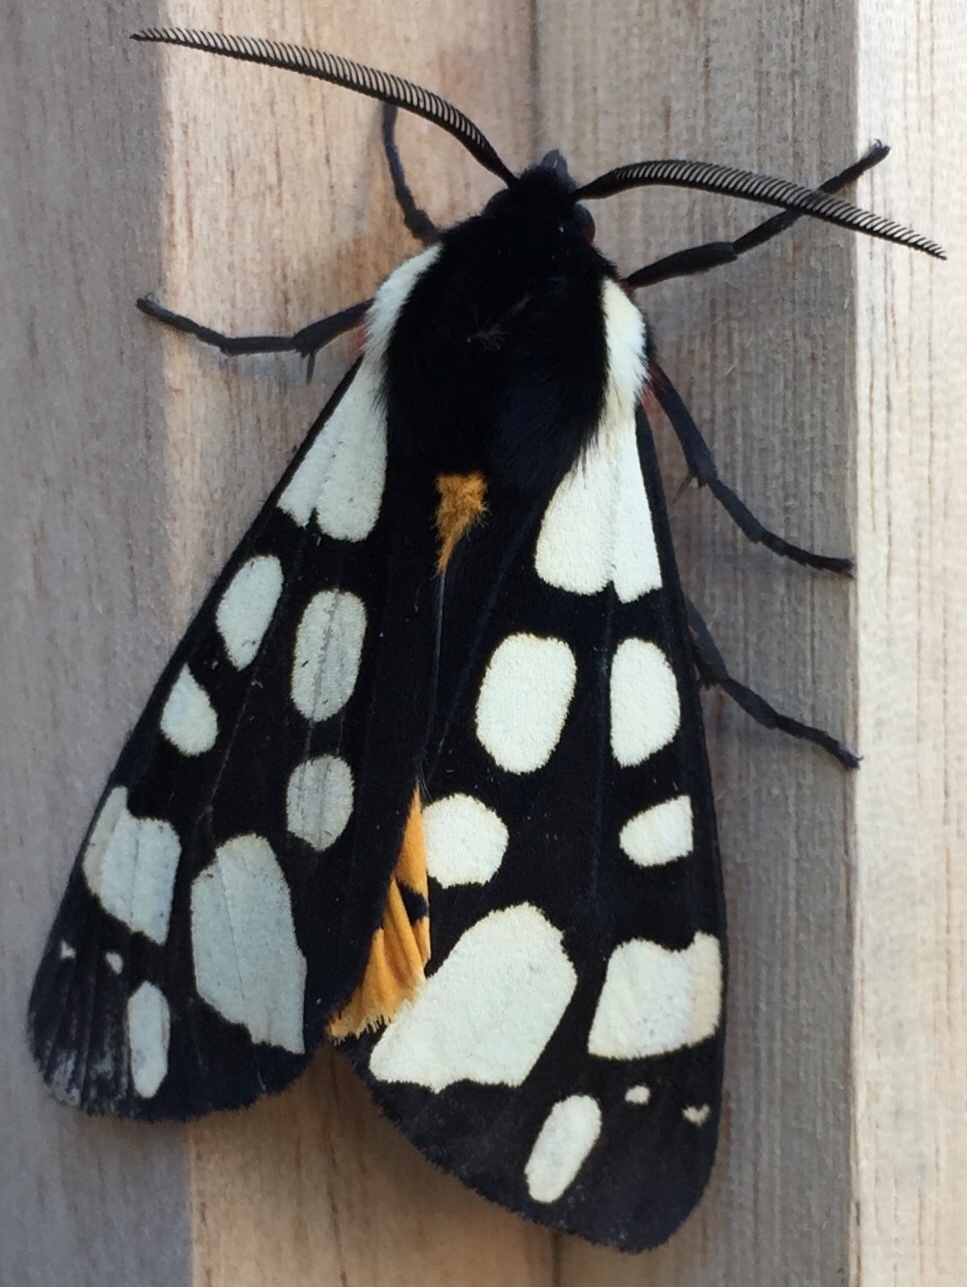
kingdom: Animalia
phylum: Arthropoda
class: Insecta
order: Lepidoptera
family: Erebidae
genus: Epicallia
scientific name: Epicallia villica
